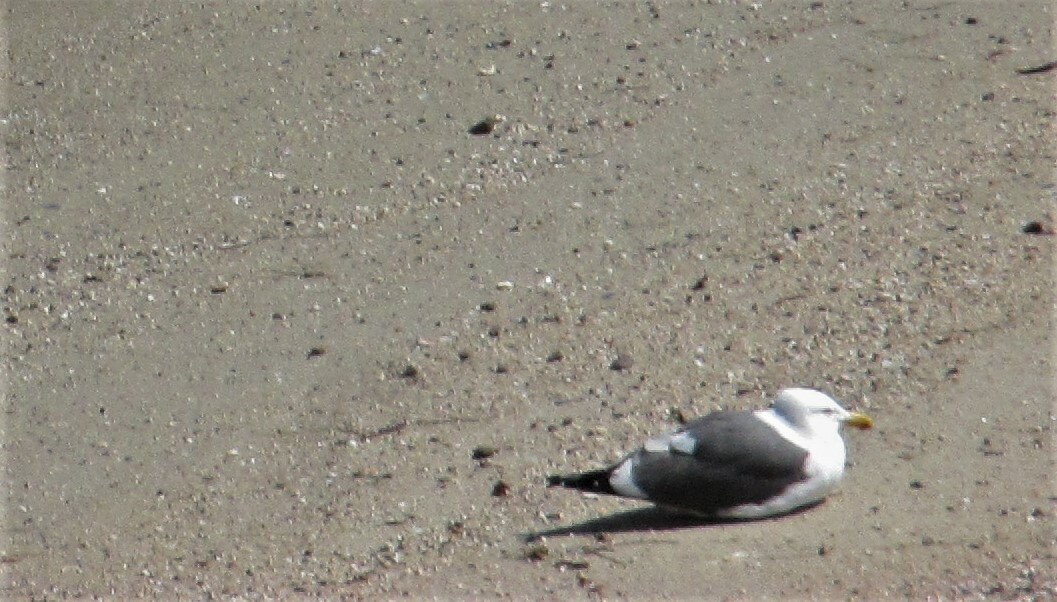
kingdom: Animalia
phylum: Chordata
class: Aves
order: Charadriiformes
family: Laridae
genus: Larus
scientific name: Larus occidentalis
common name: Western gull
